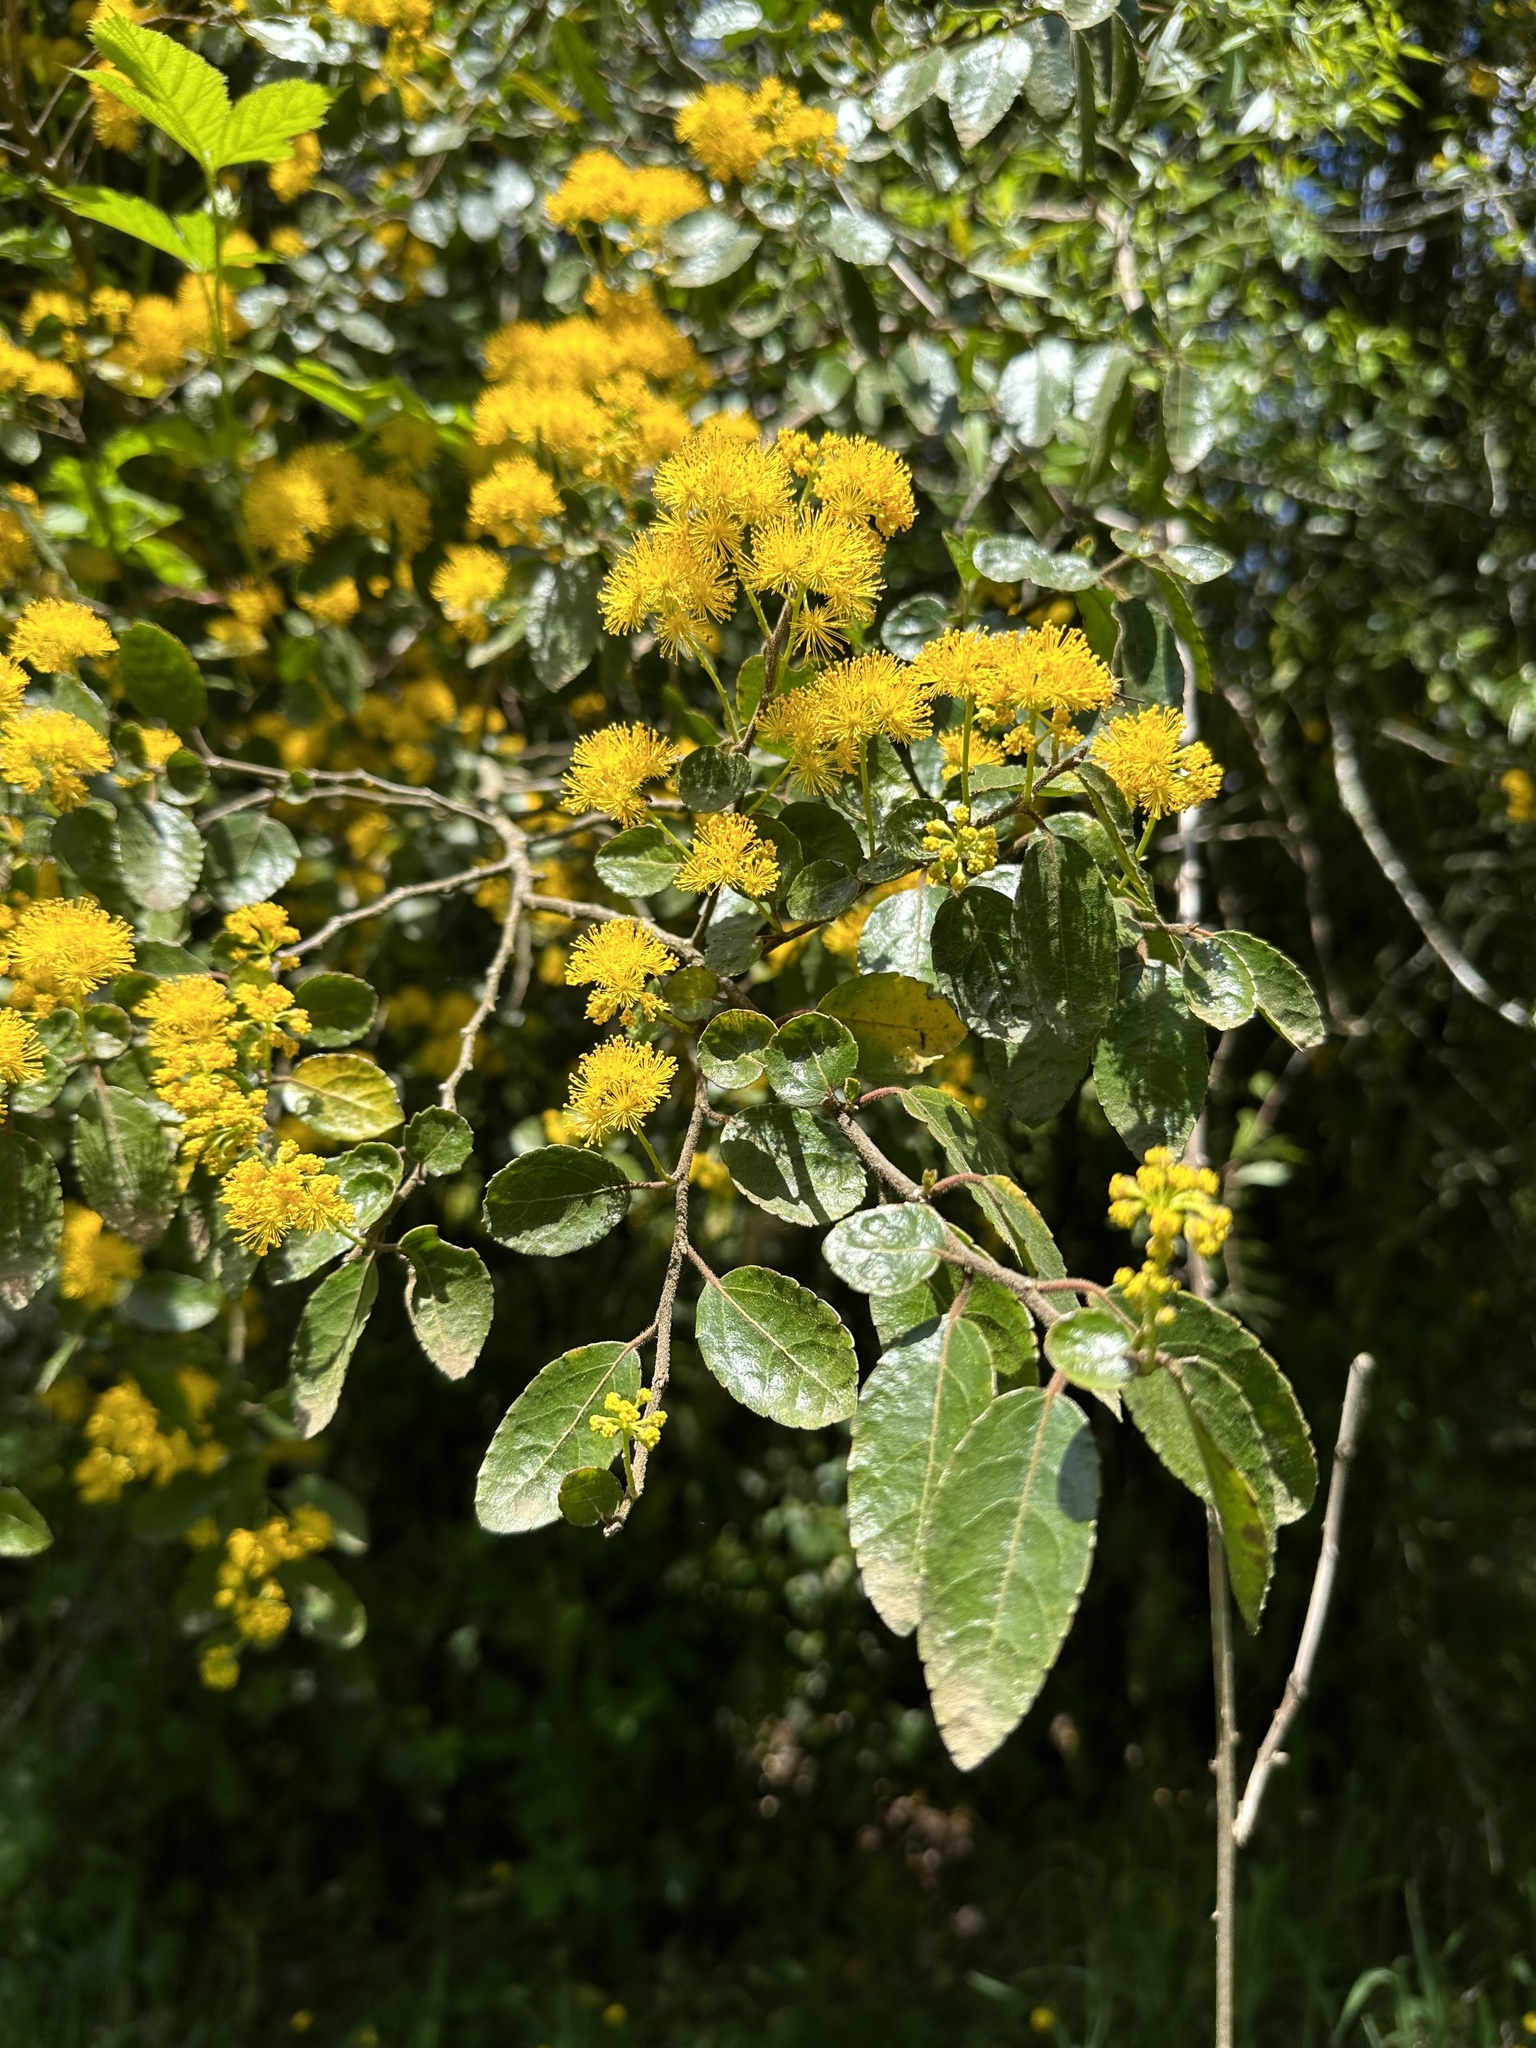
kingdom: Plantae
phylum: Tracheophyta
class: Magnoliopsida
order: Malpighiales
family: Salicaceae
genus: Azara
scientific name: Azara serrata
